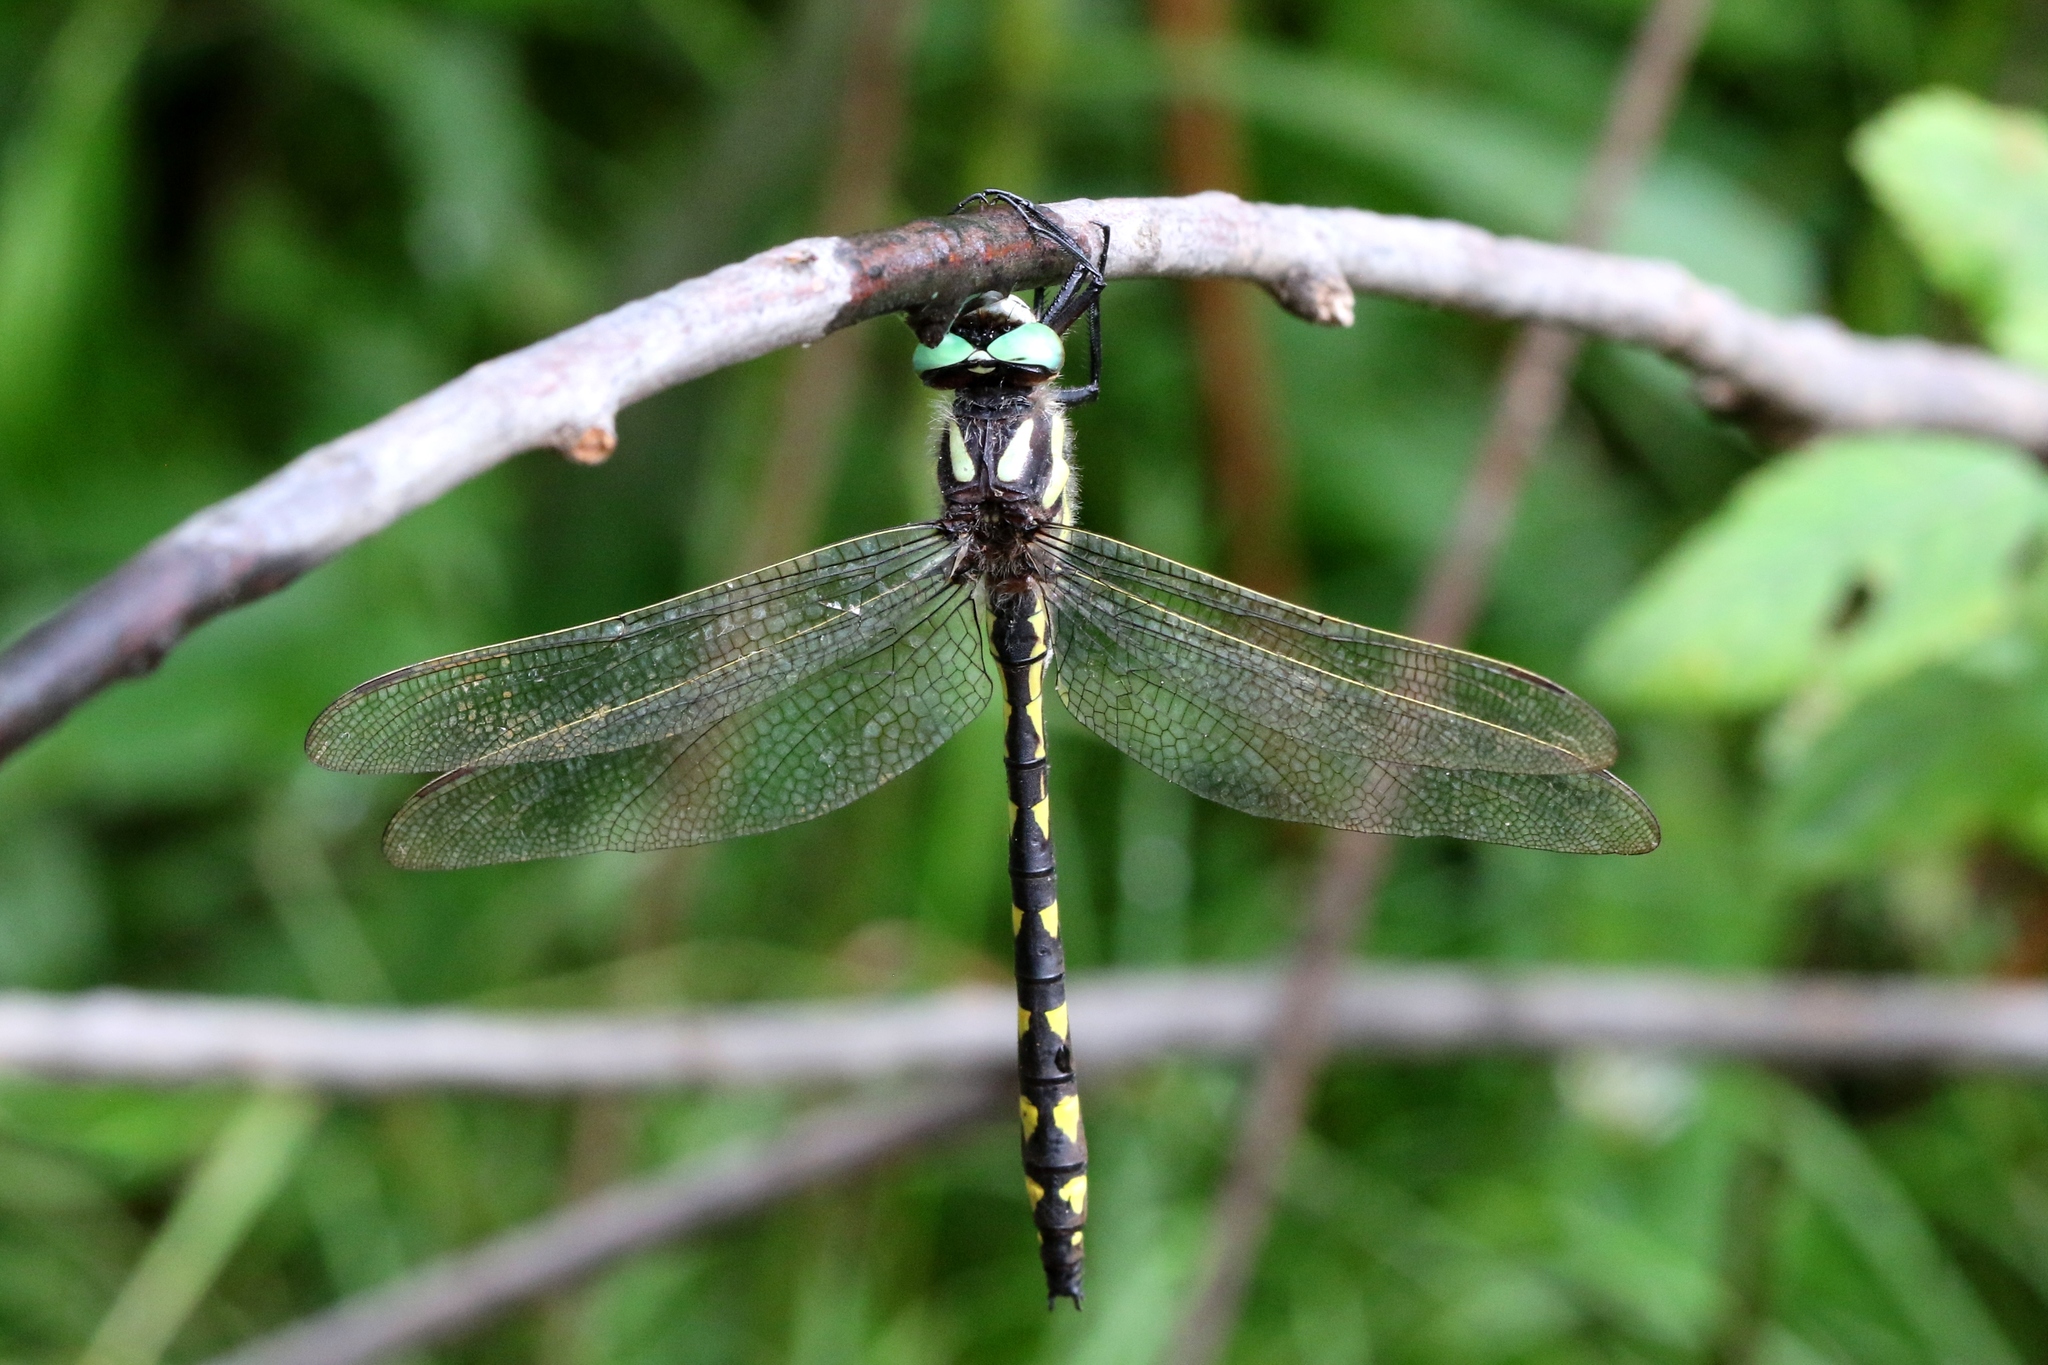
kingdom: Animalia
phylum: Arthropoda
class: Insecta
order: Odonata
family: Cordulegastridae
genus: Cordulegaster
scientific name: Cordulegaster diastatops
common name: Delta-spotted spiketail
